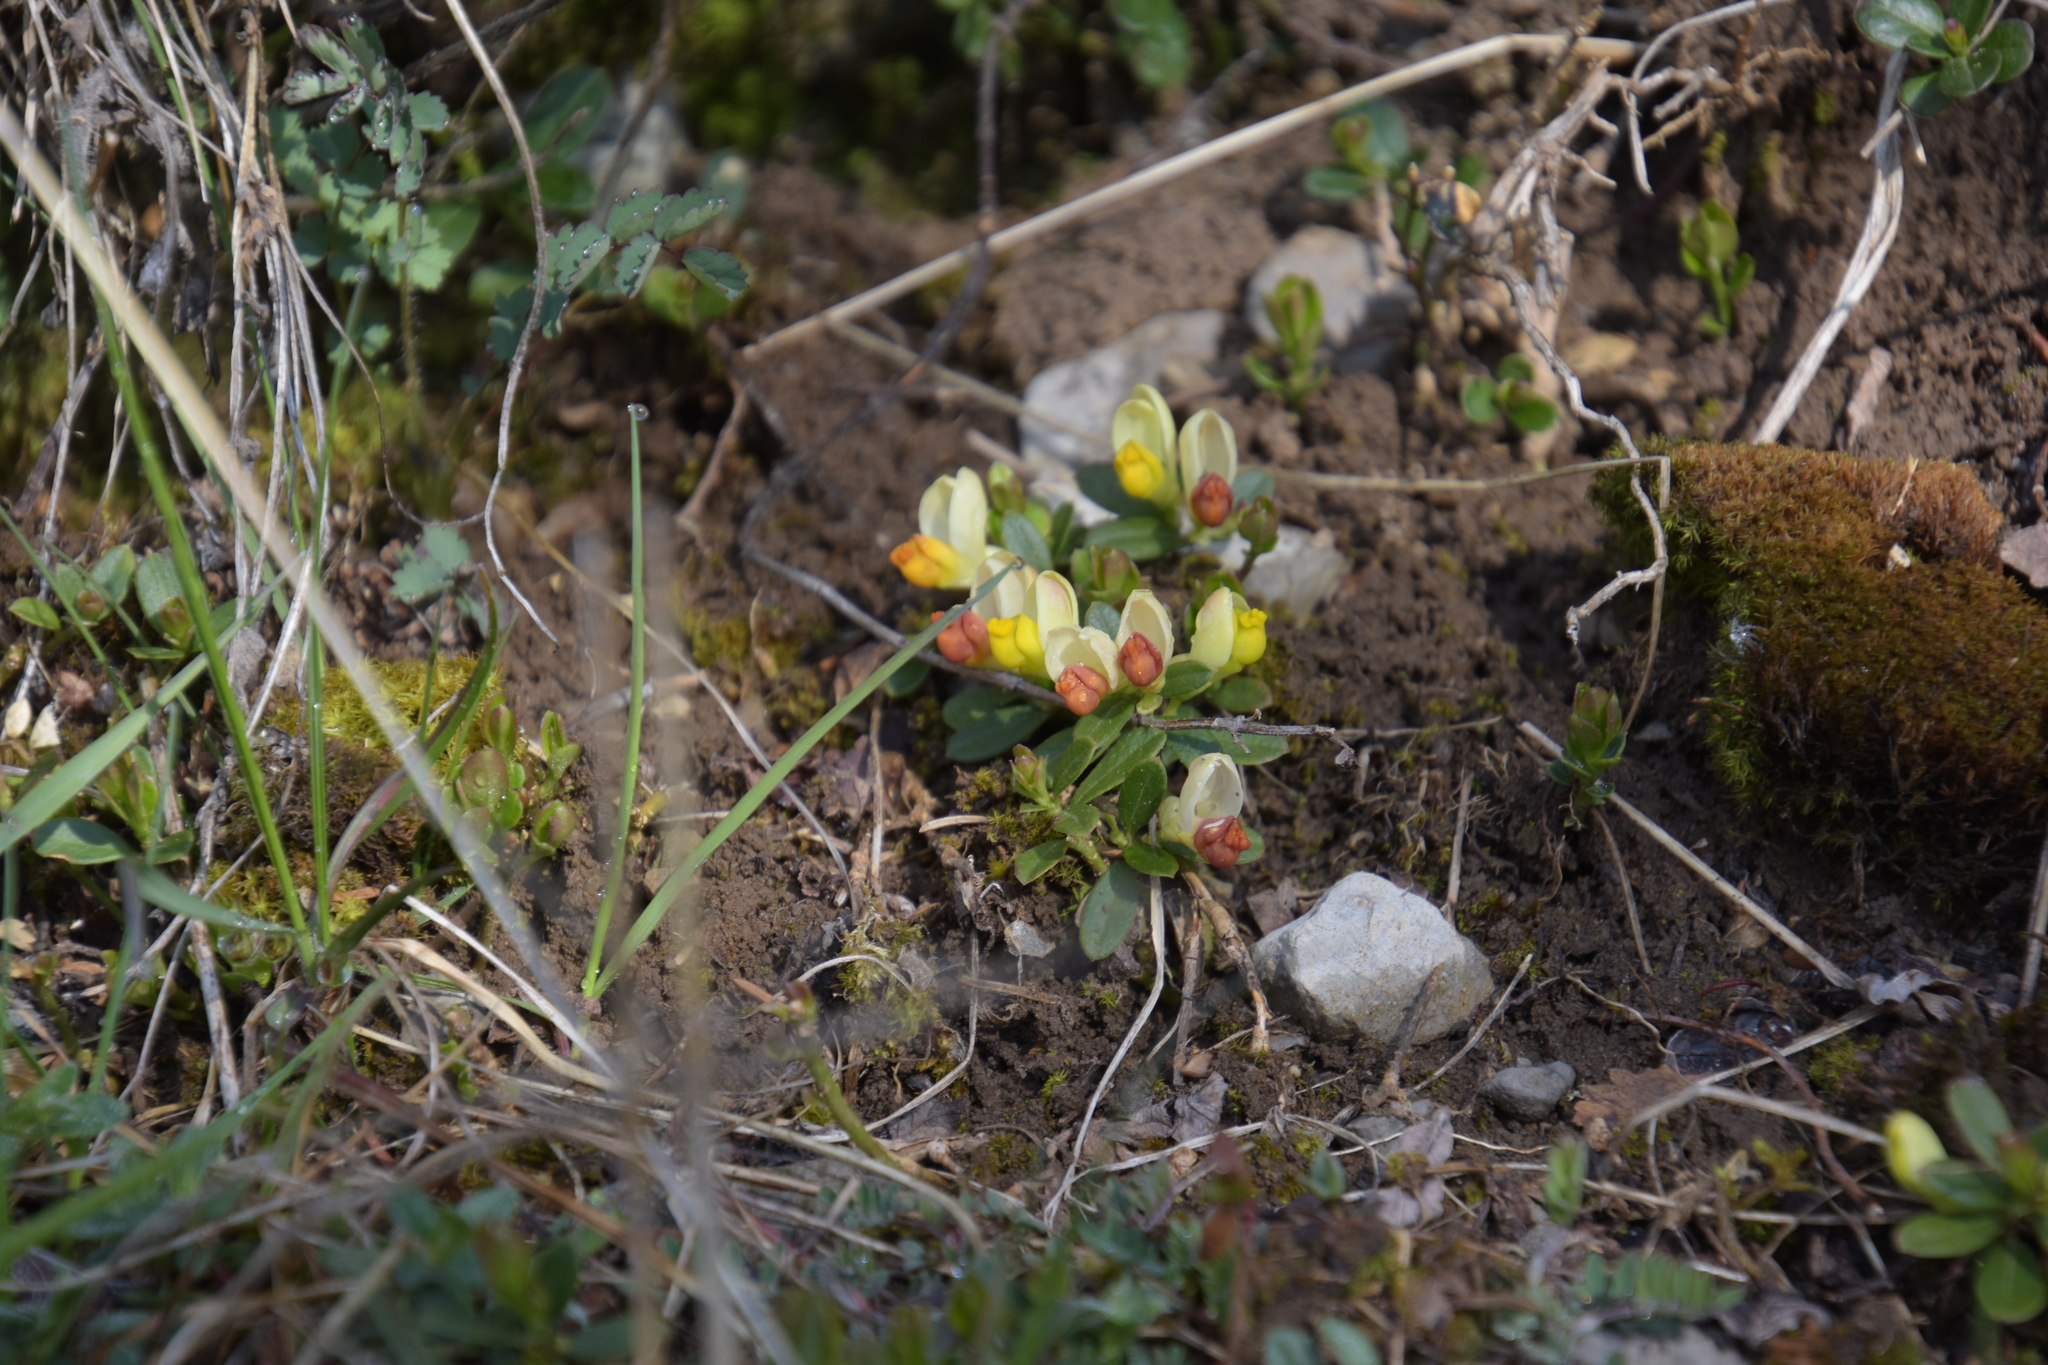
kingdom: Plantae
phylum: Tracheophyta
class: Magnoliopsida
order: Fabales
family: Polygalaceae
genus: Polygaloides
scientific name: Polygaloides chamaebuxus
